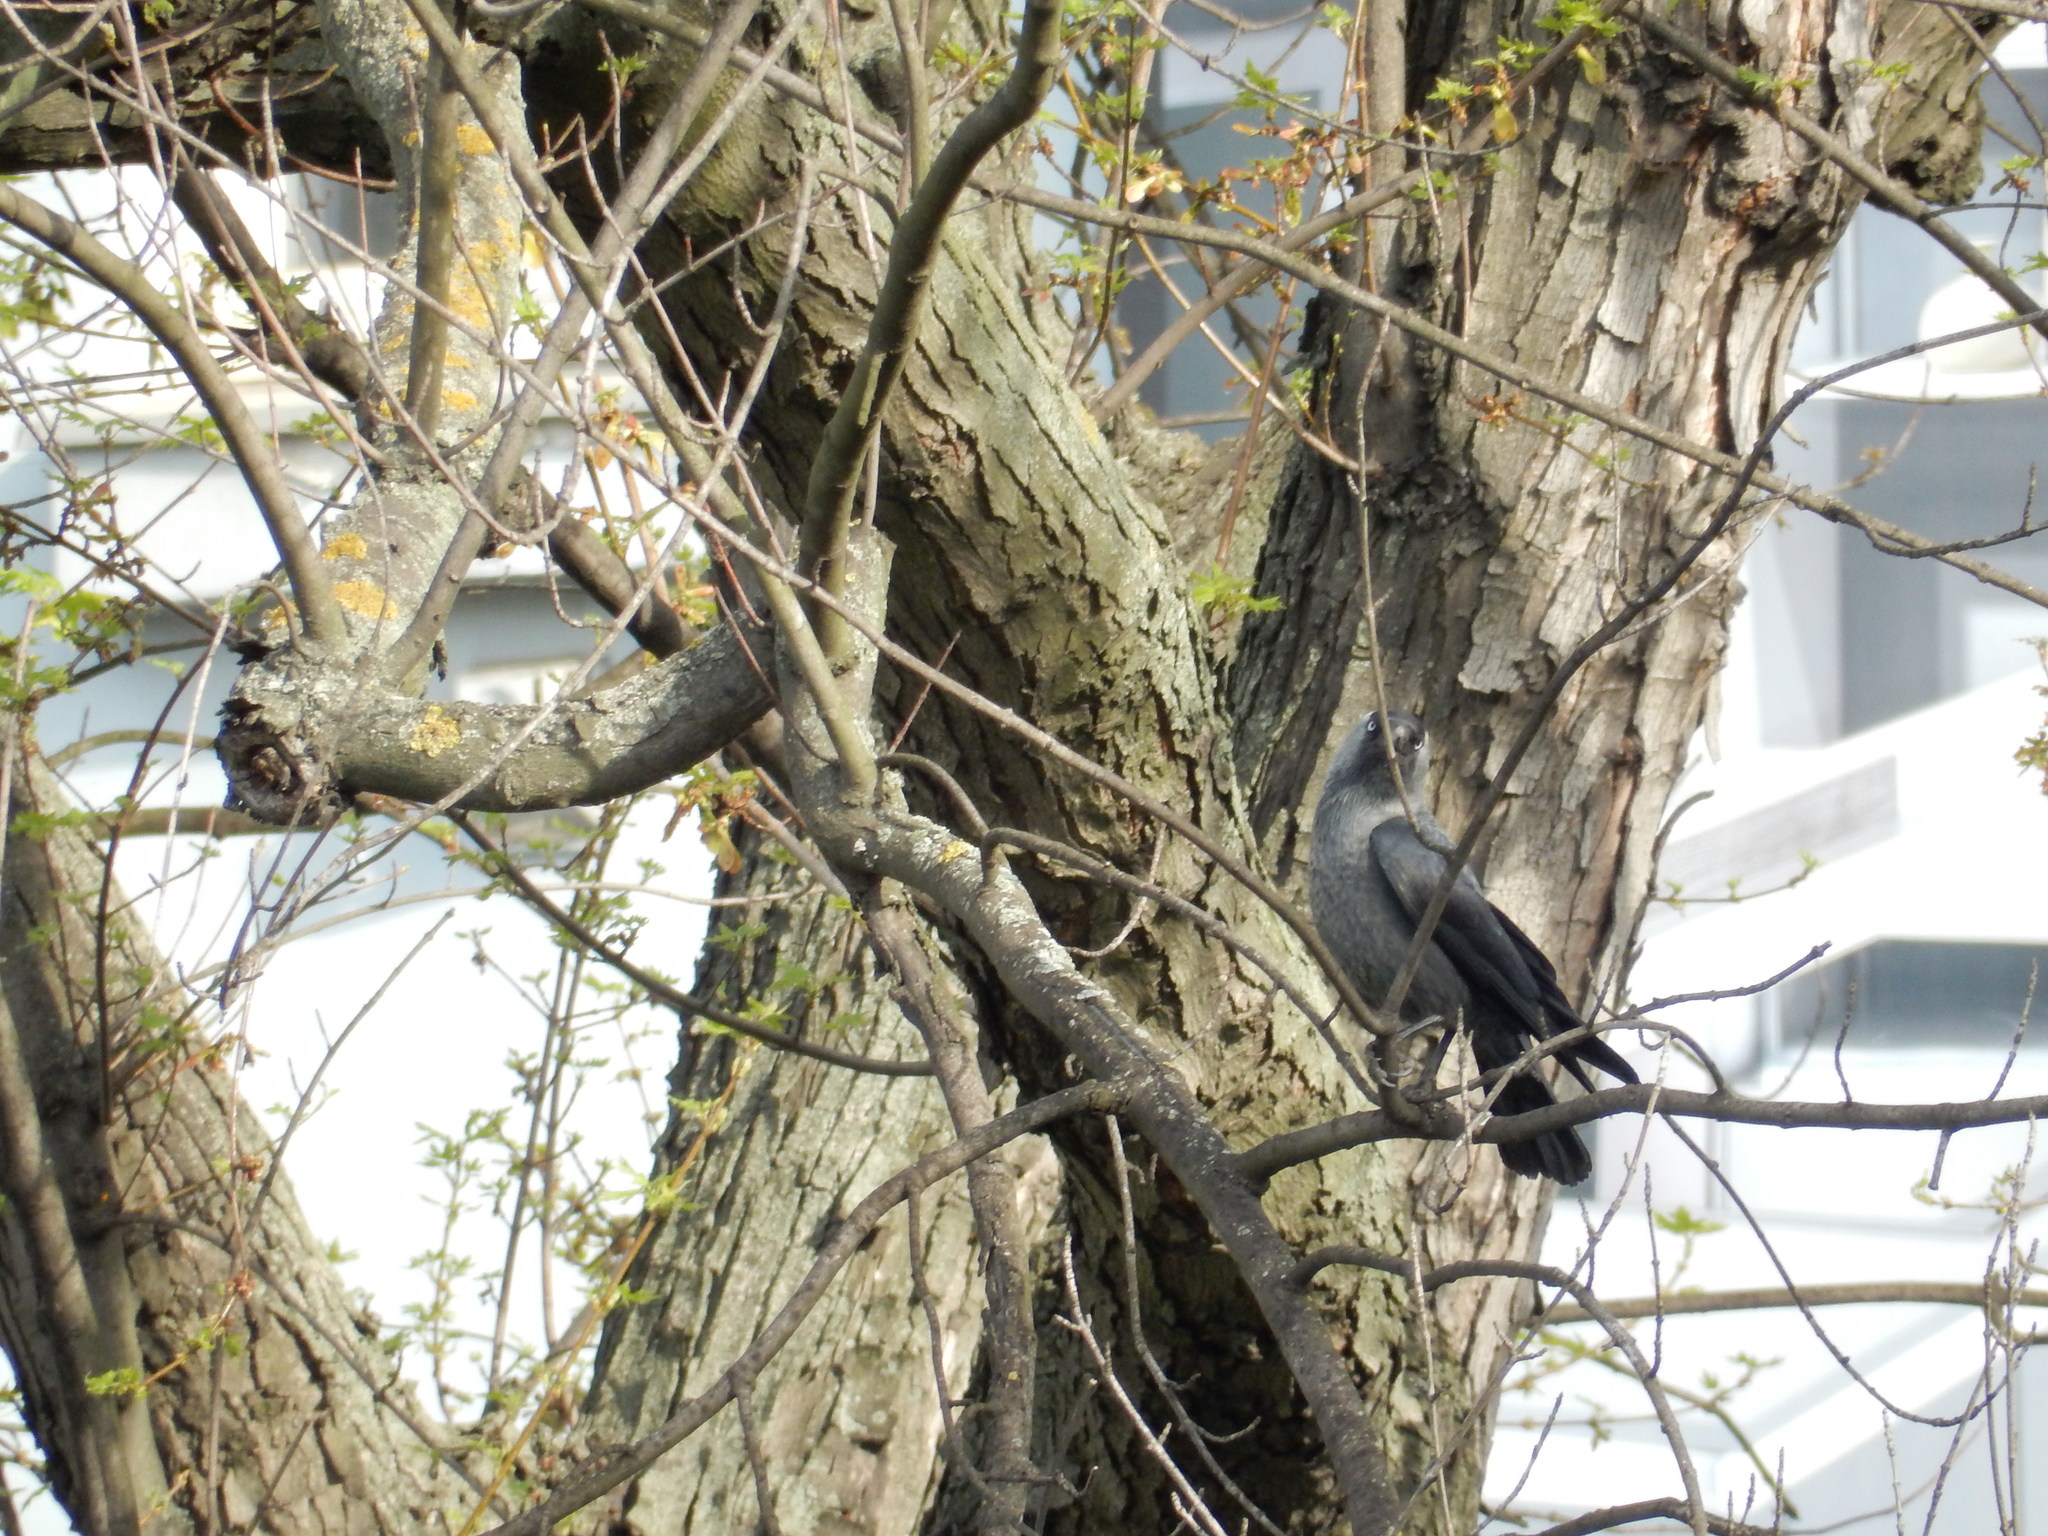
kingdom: Animalia
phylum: Chordata
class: Aves
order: Passeriformes
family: Corvidae
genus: Coloeus
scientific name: Coloeus monedula
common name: Western jackdaw
